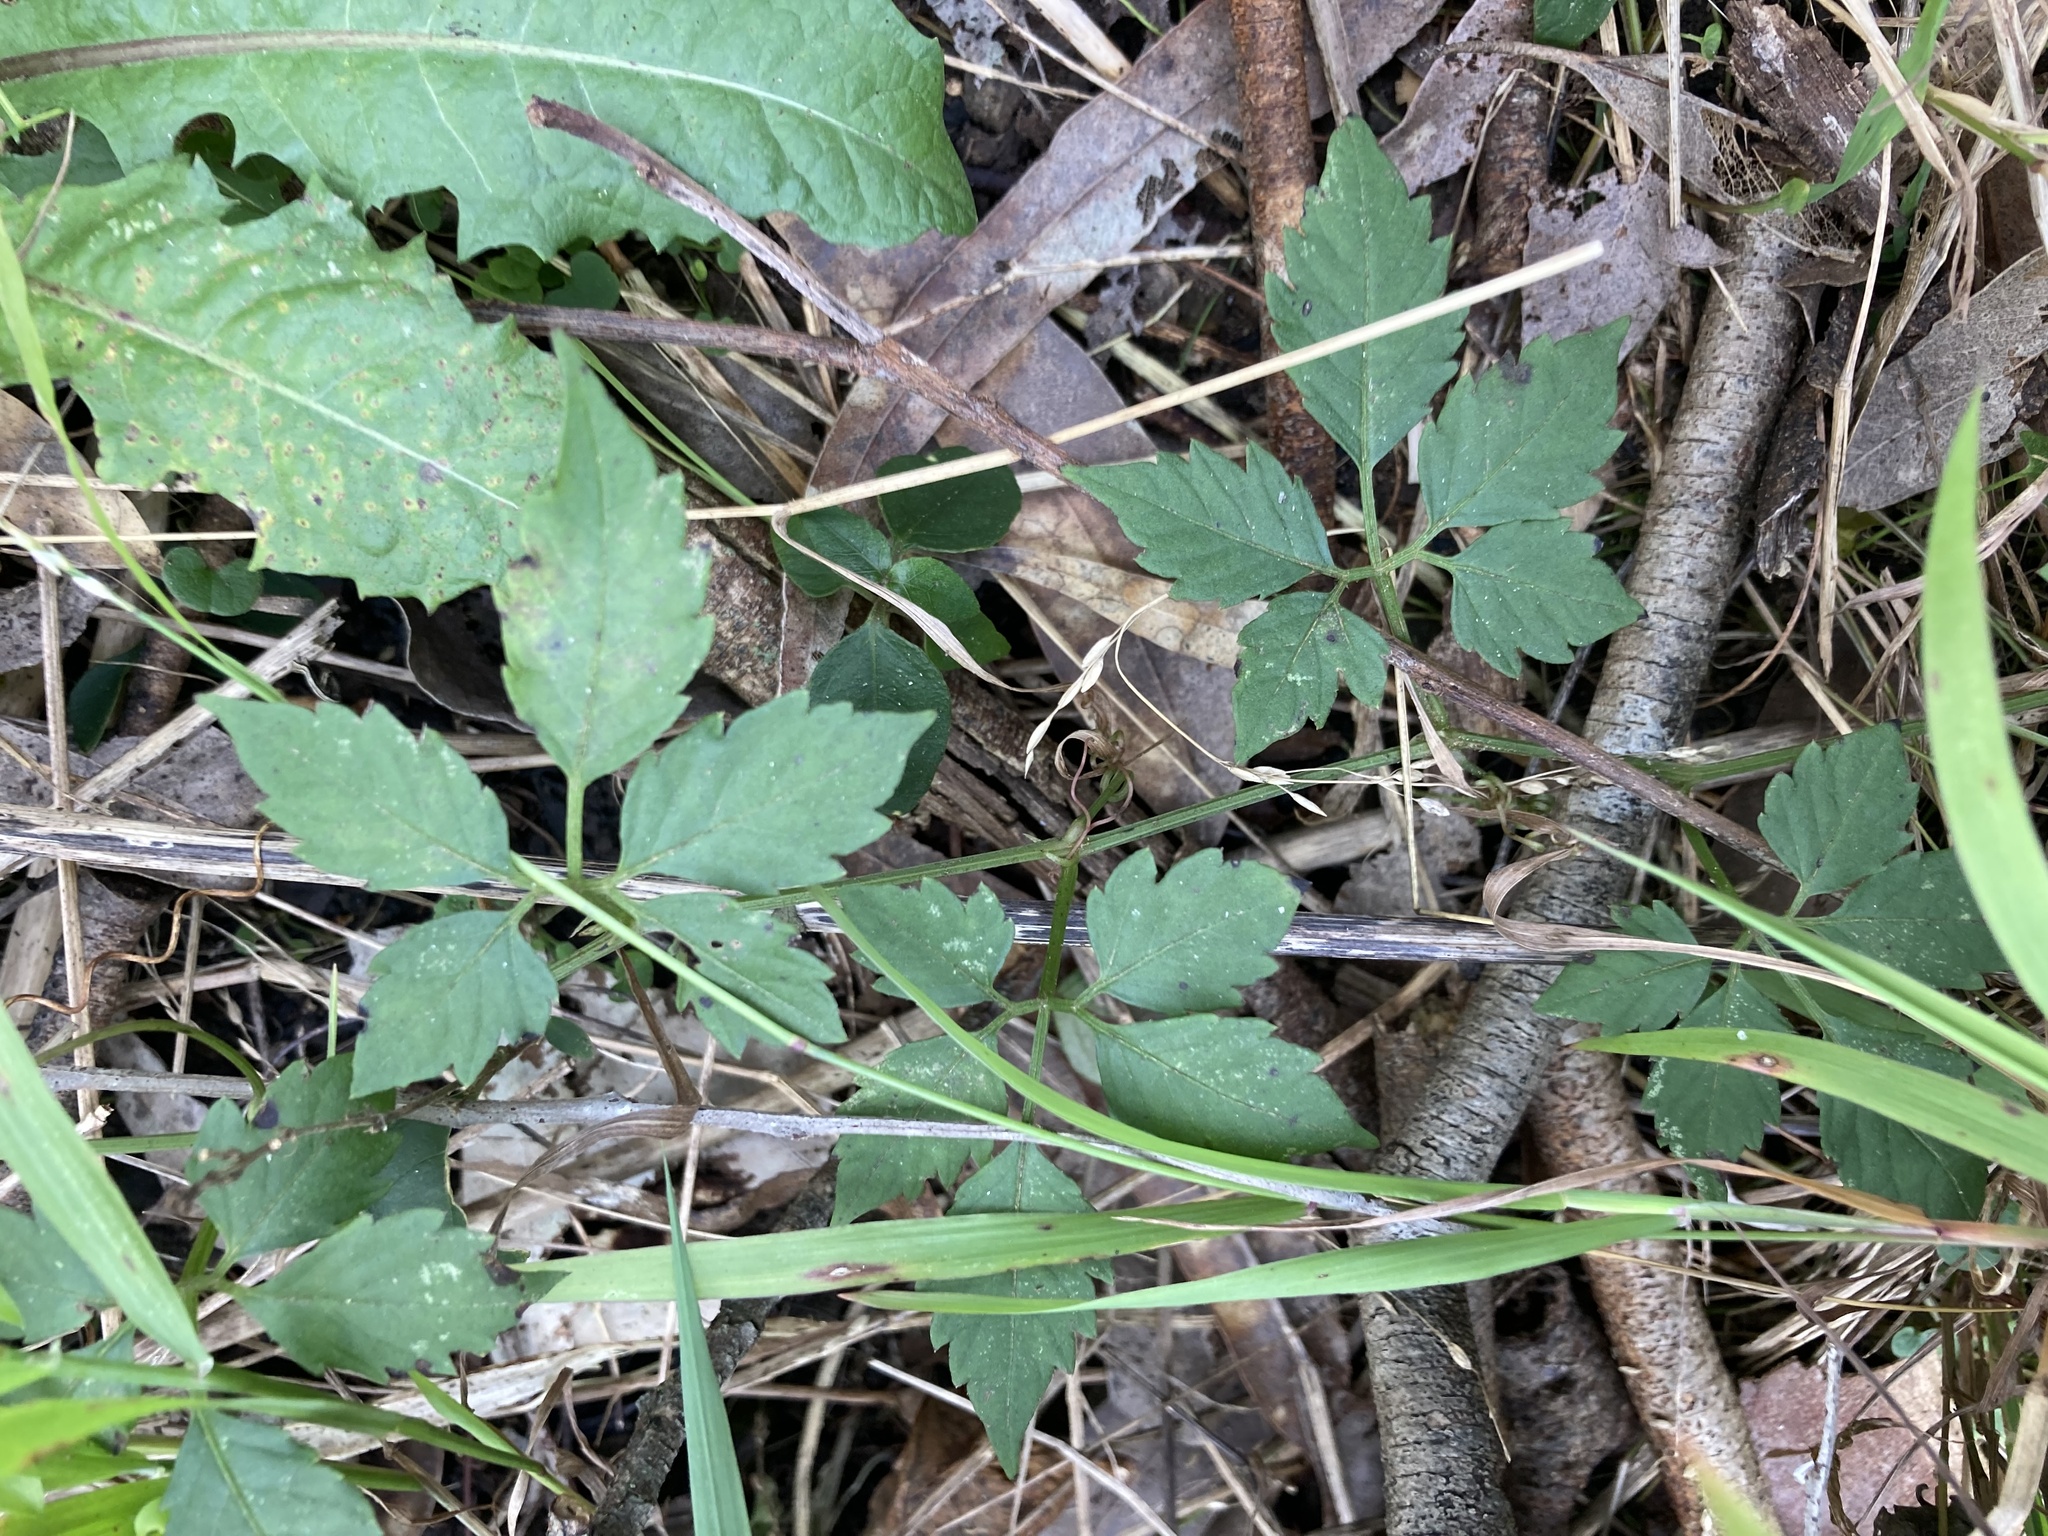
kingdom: Plantae
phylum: Tracheophyta
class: Magnoliopsida
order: Vitales
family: Vitaceae
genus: Causonis
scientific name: Causonis clematidea
